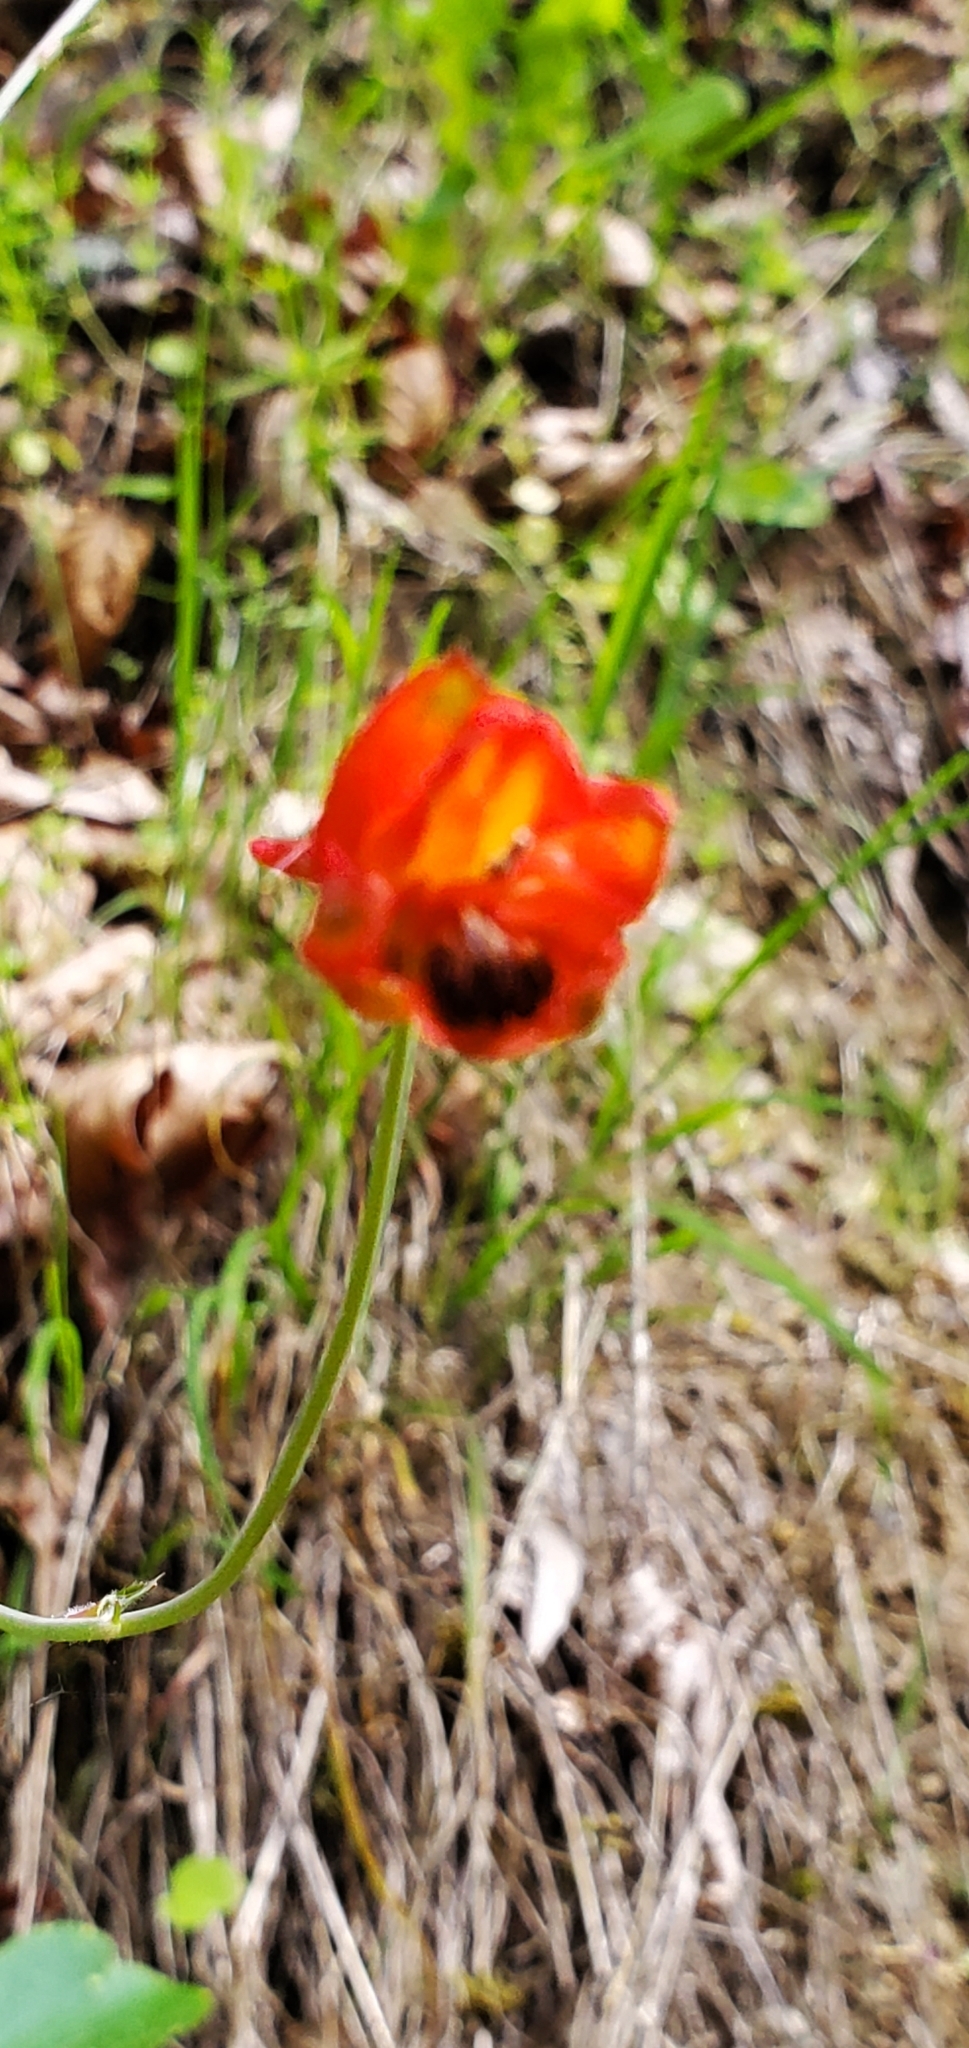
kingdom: Plantae
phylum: Tracheophyta
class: Magnoliopsida
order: Ranunculales
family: Ranunculaceae
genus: Delphinium
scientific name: Delphinium nudicaule
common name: Red larkspur
